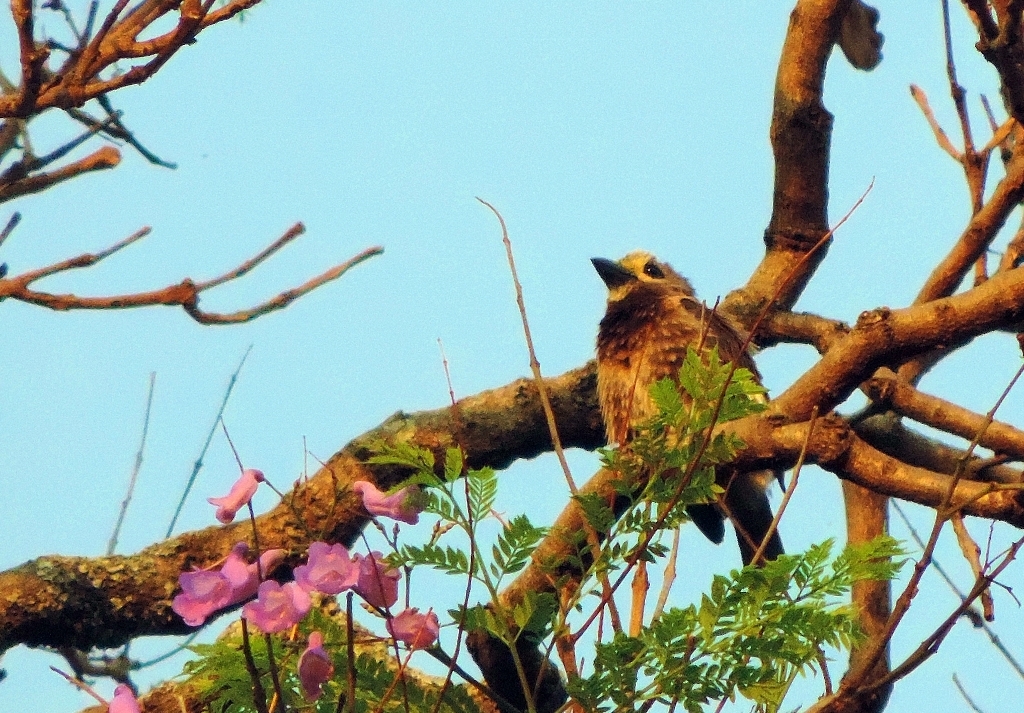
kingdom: Animalia
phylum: Chordata
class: Aves
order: Piciformes
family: Lybiidae
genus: Stactolaema
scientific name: Stactolaema whytii
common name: Whyte's barbet
